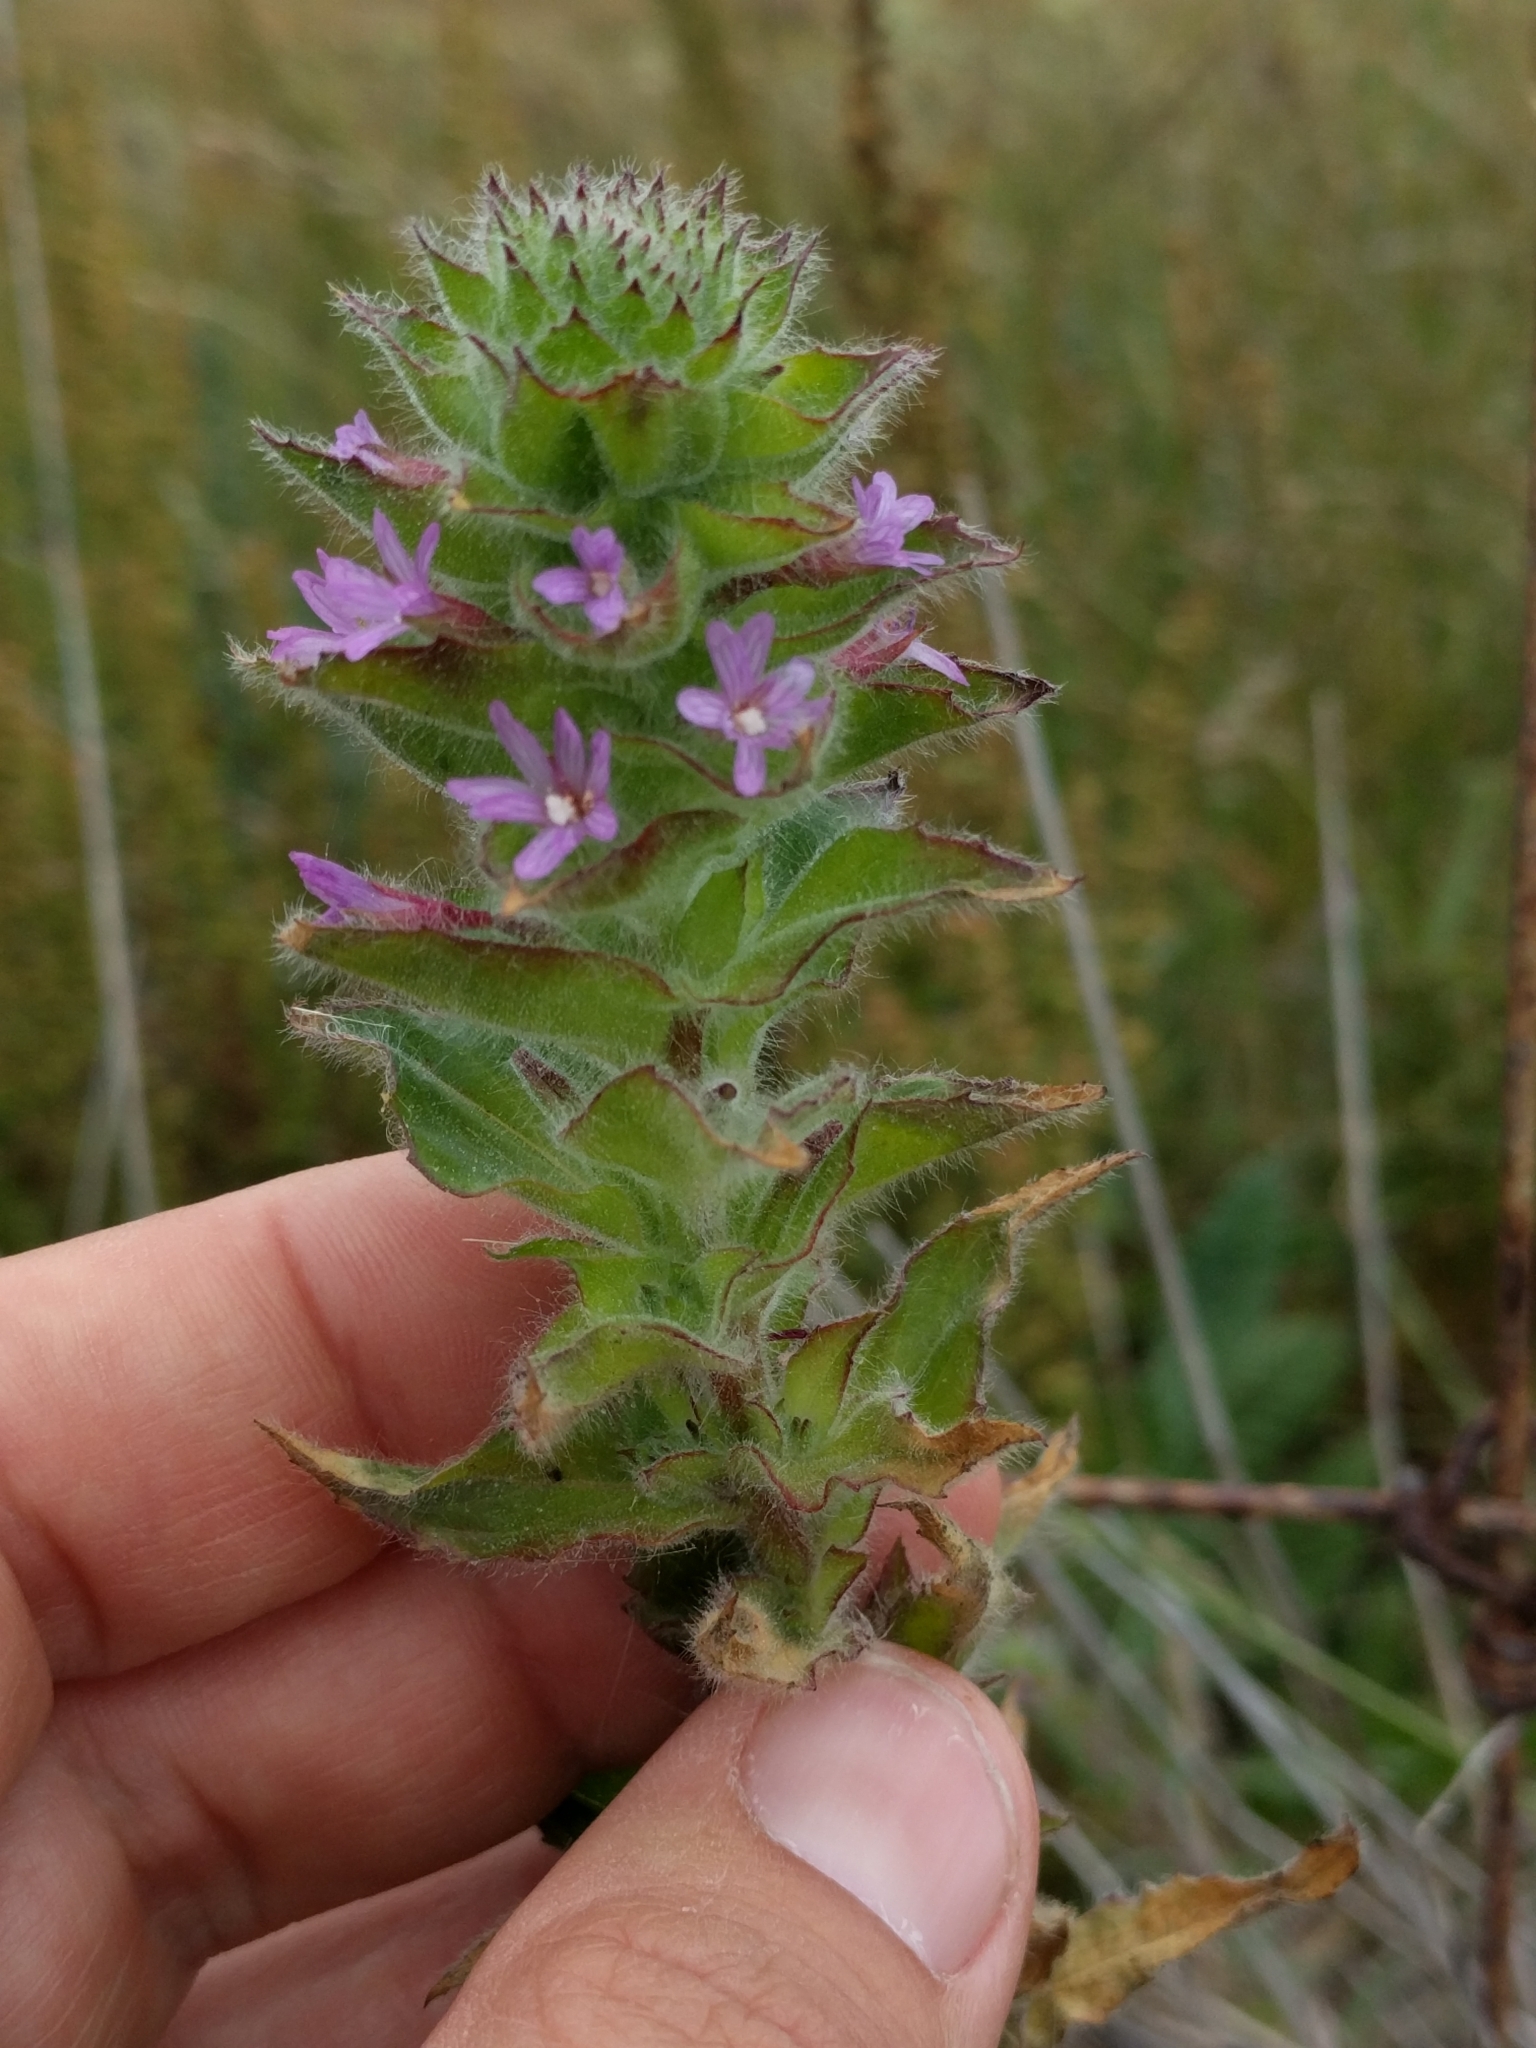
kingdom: Plantae
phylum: Tracheophyta
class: Magnoliopsida
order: Myrtales
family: Onagraceae
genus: Epilobium
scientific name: Epilobium densiflorum
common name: Dense spike-primrose
